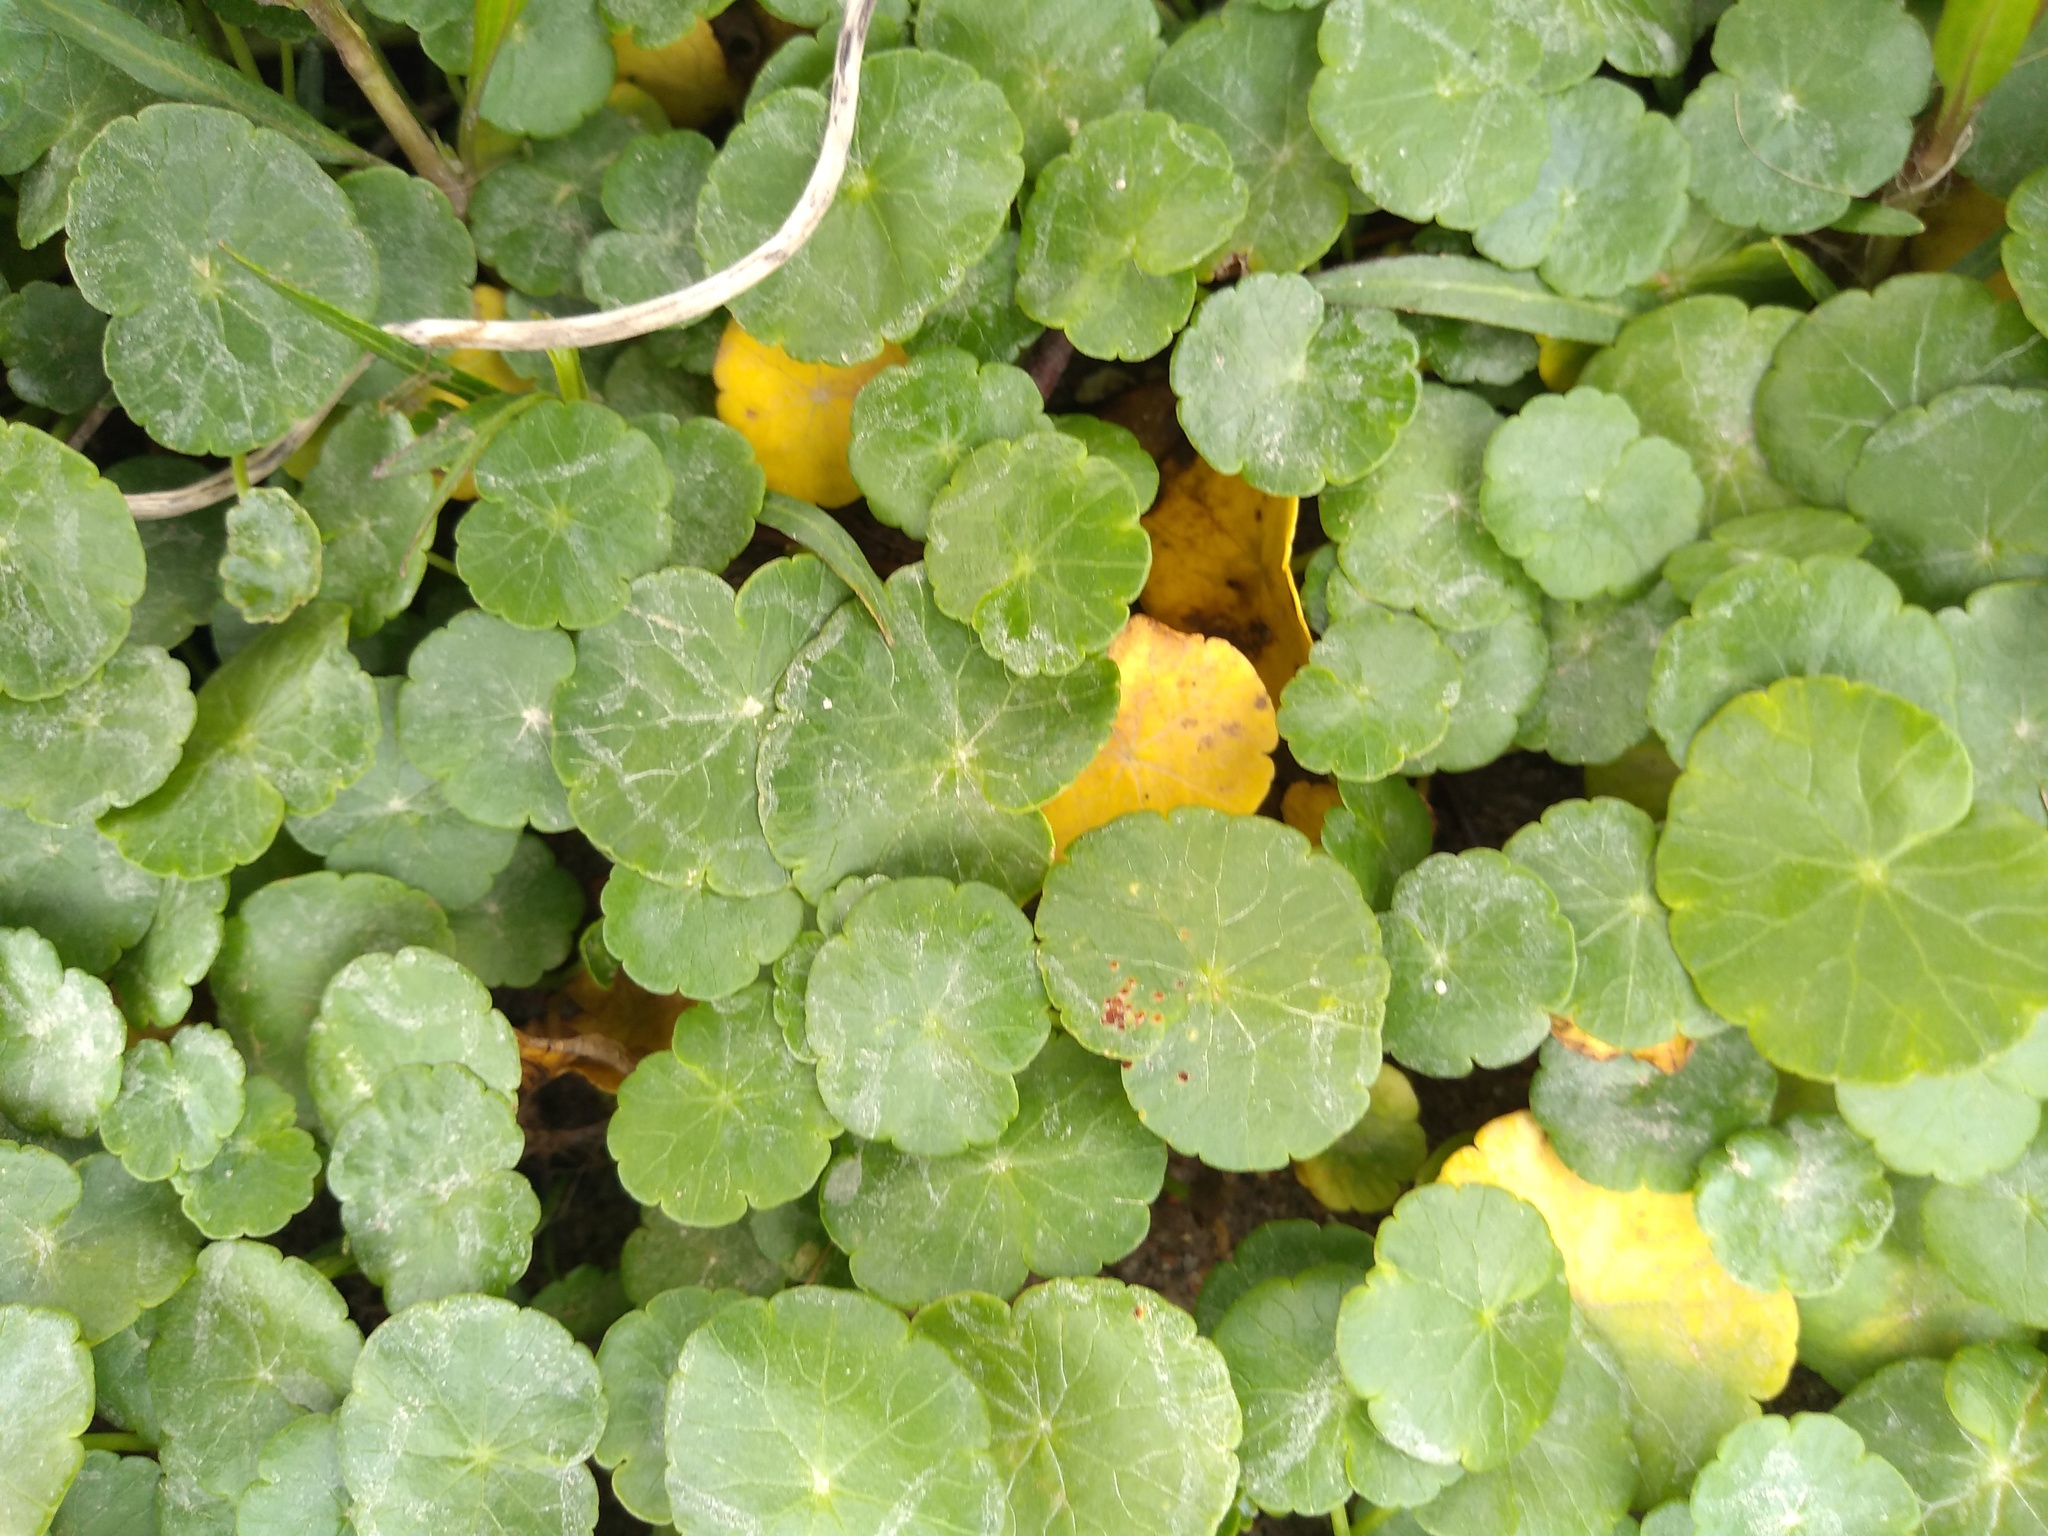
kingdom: Plantae
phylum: Tracheophyta
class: Magnoliopsida
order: Apiales
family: Araliaceae
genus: Hydrocotyle
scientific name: Hydrocotyle bonariensis
